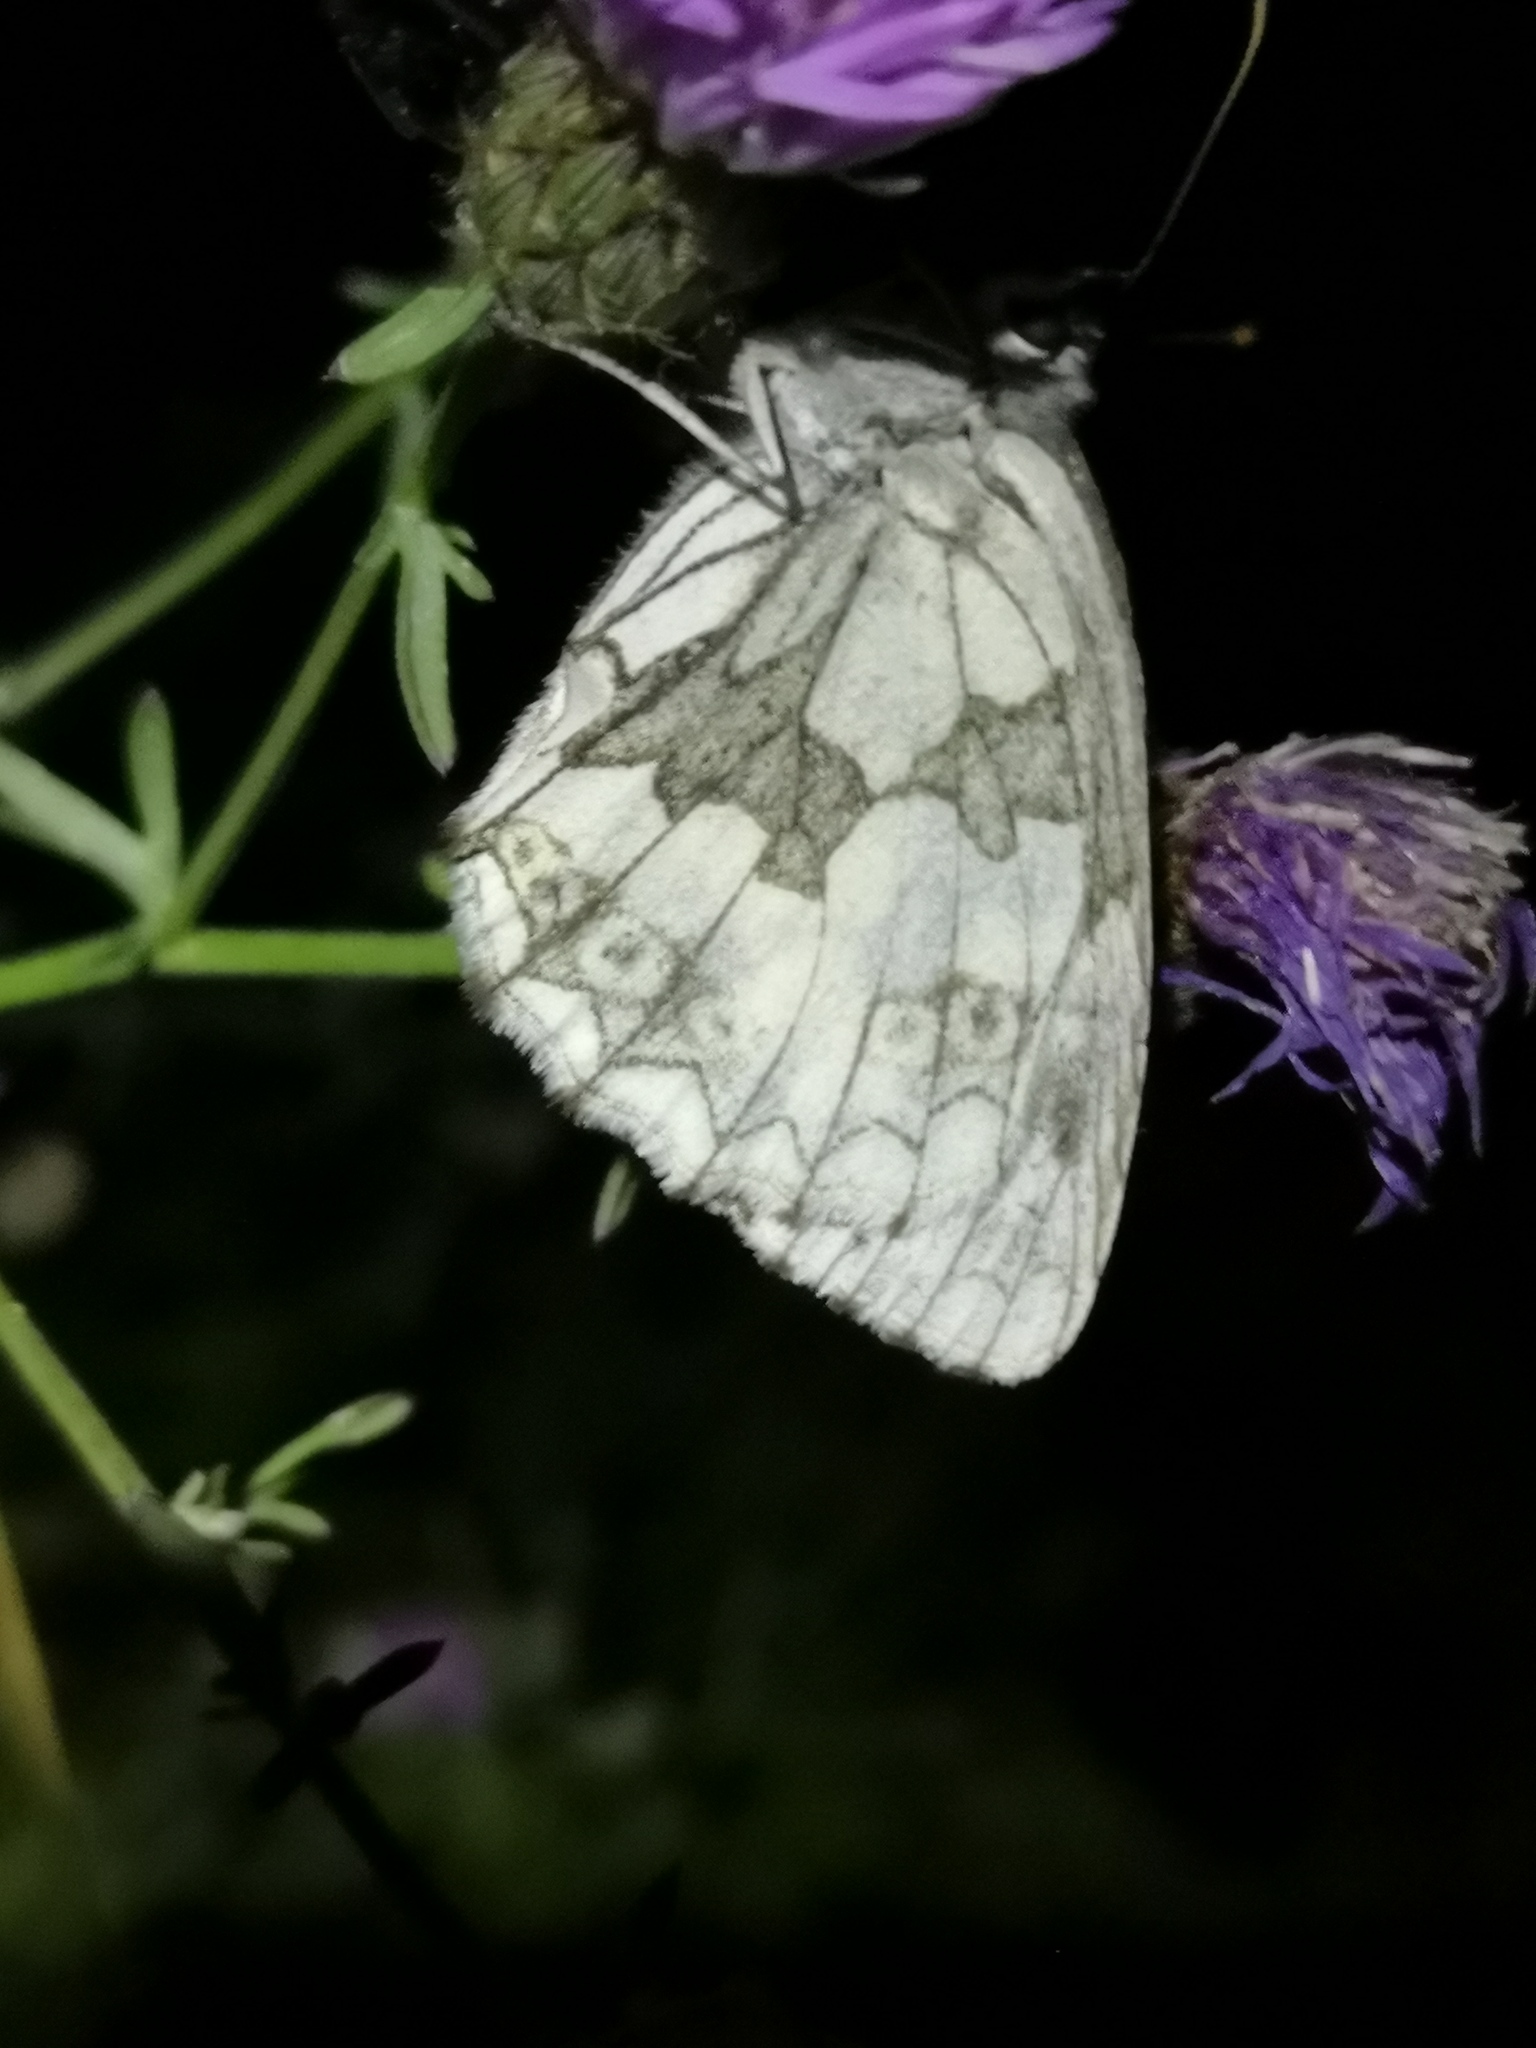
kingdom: Animalia
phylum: Arthropoda
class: Insecta
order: Lepidoptera
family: Nymphalidae
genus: Melanargia
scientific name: Melanargia galathea
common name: Marbled white
